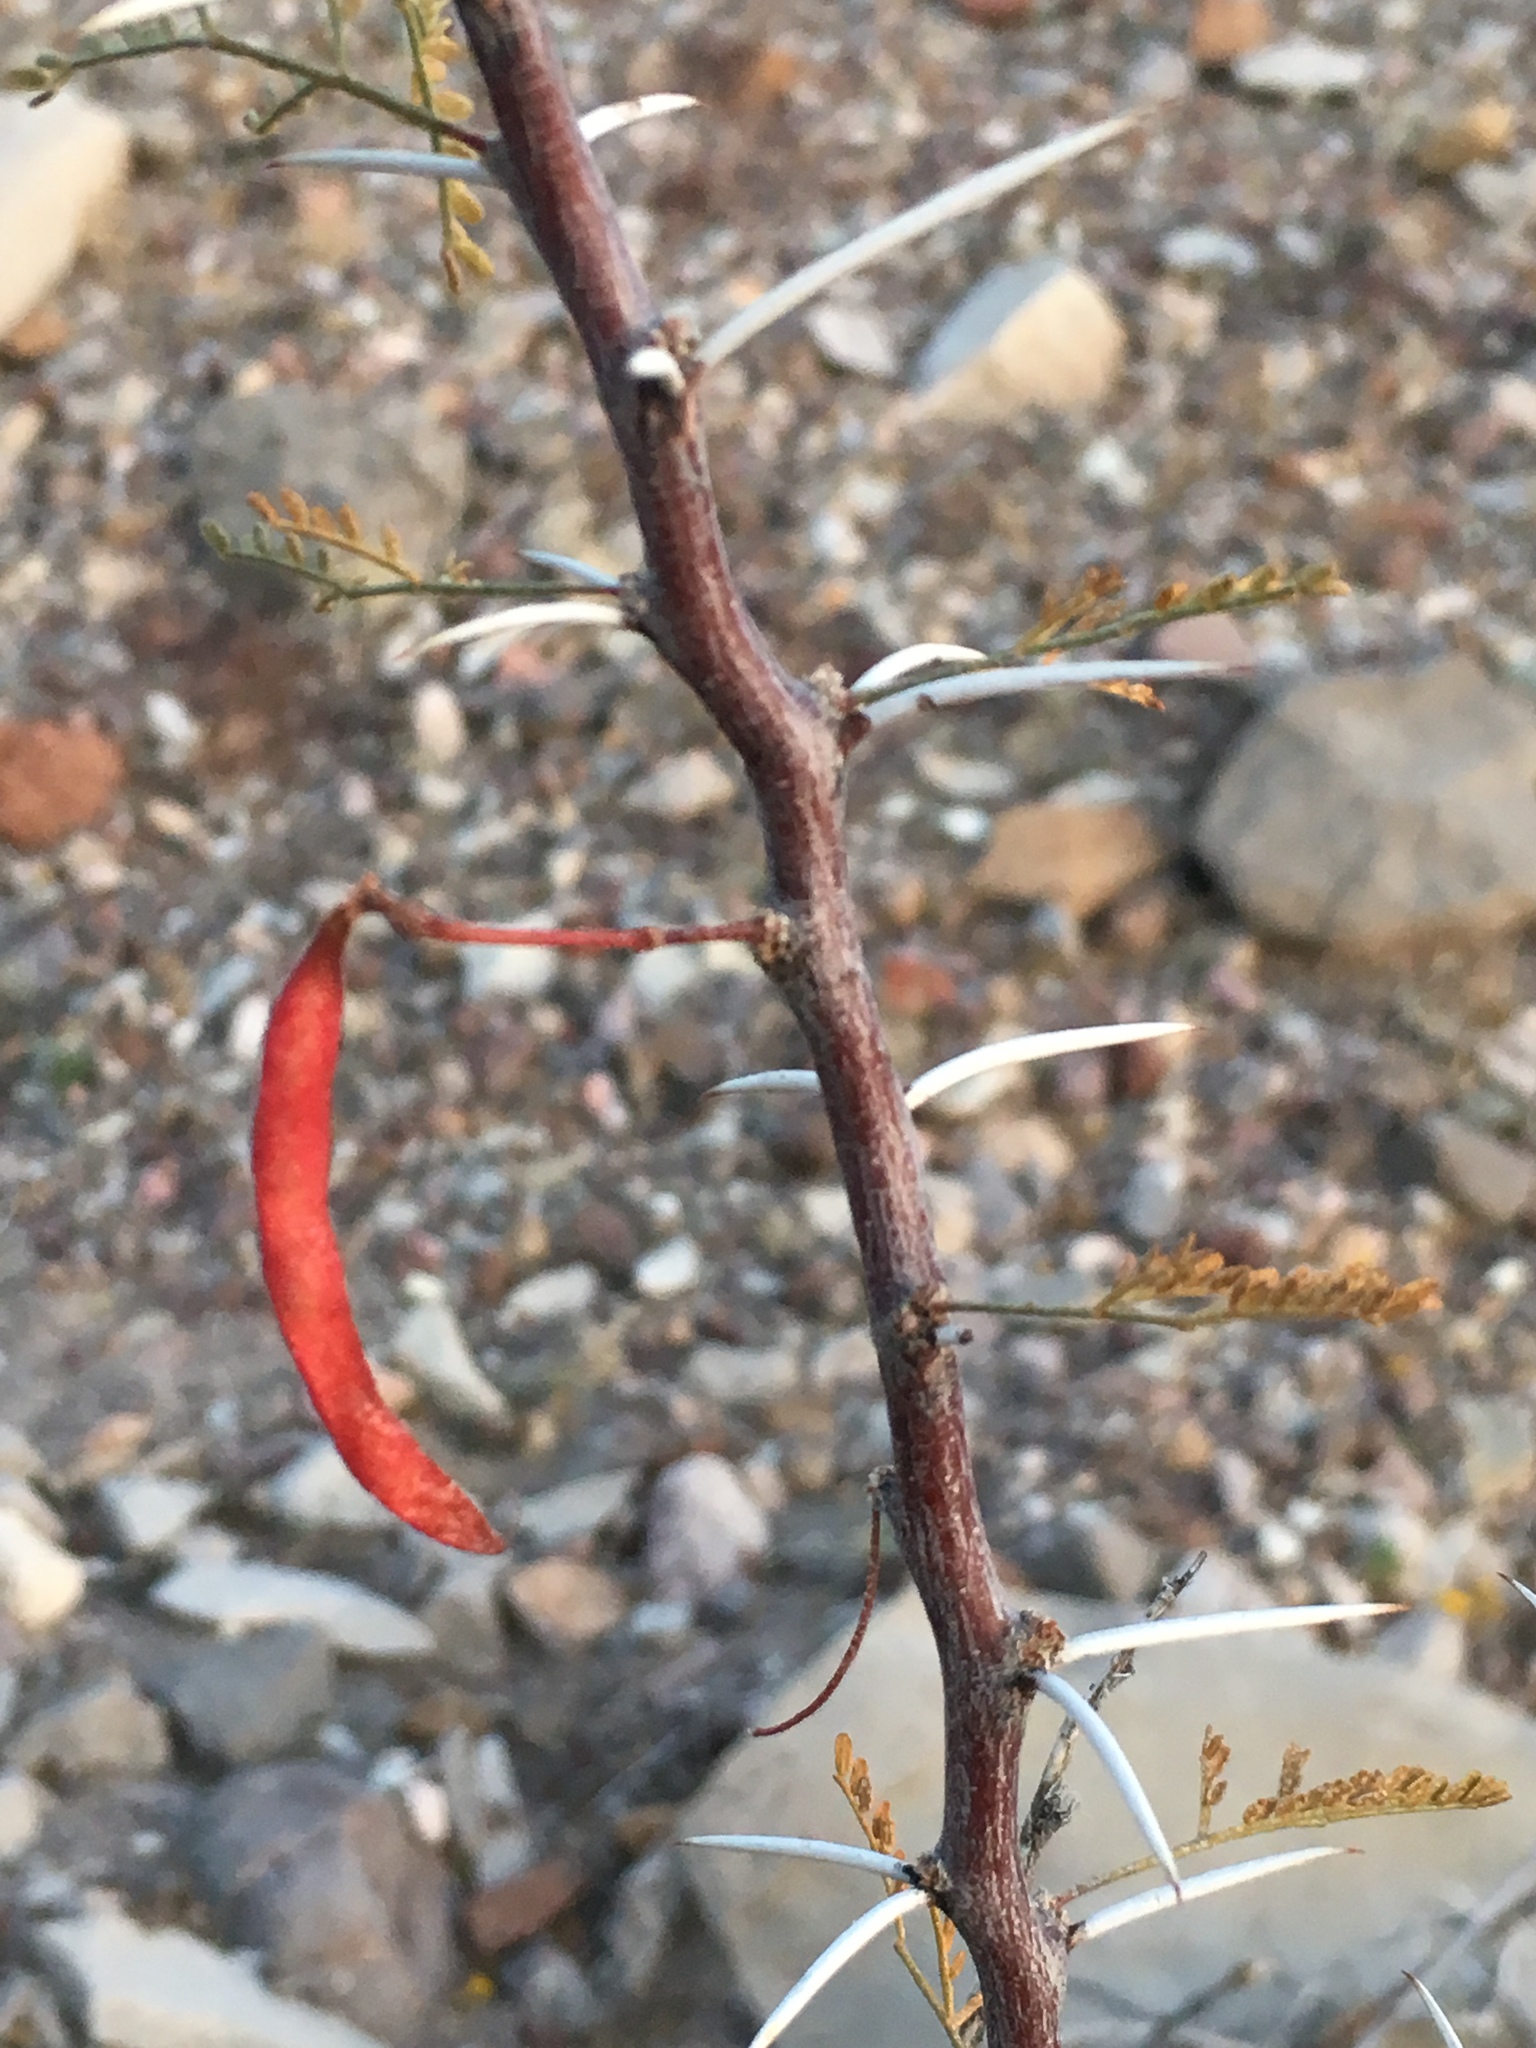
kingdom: Plantae
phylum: Tracheophyta
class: Magnoliopsida
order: Fabales
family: Fabaceae
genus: Vachellia
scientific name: Vachellia constricta
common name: Mescat acacia
